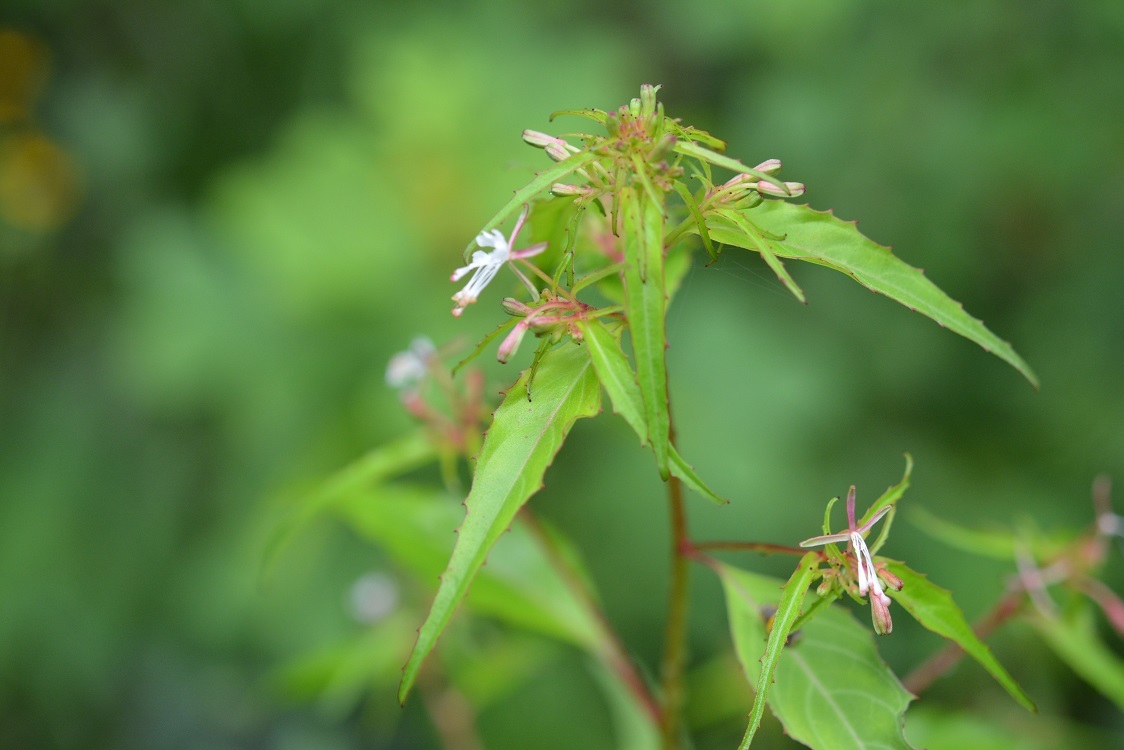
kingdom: Plantae
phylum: Tracheophyta
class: Magnoliopsida
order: Myrtales
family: Onagraceae
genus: Gongylocarpus
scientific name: Gongylocarpus rubricaulis
